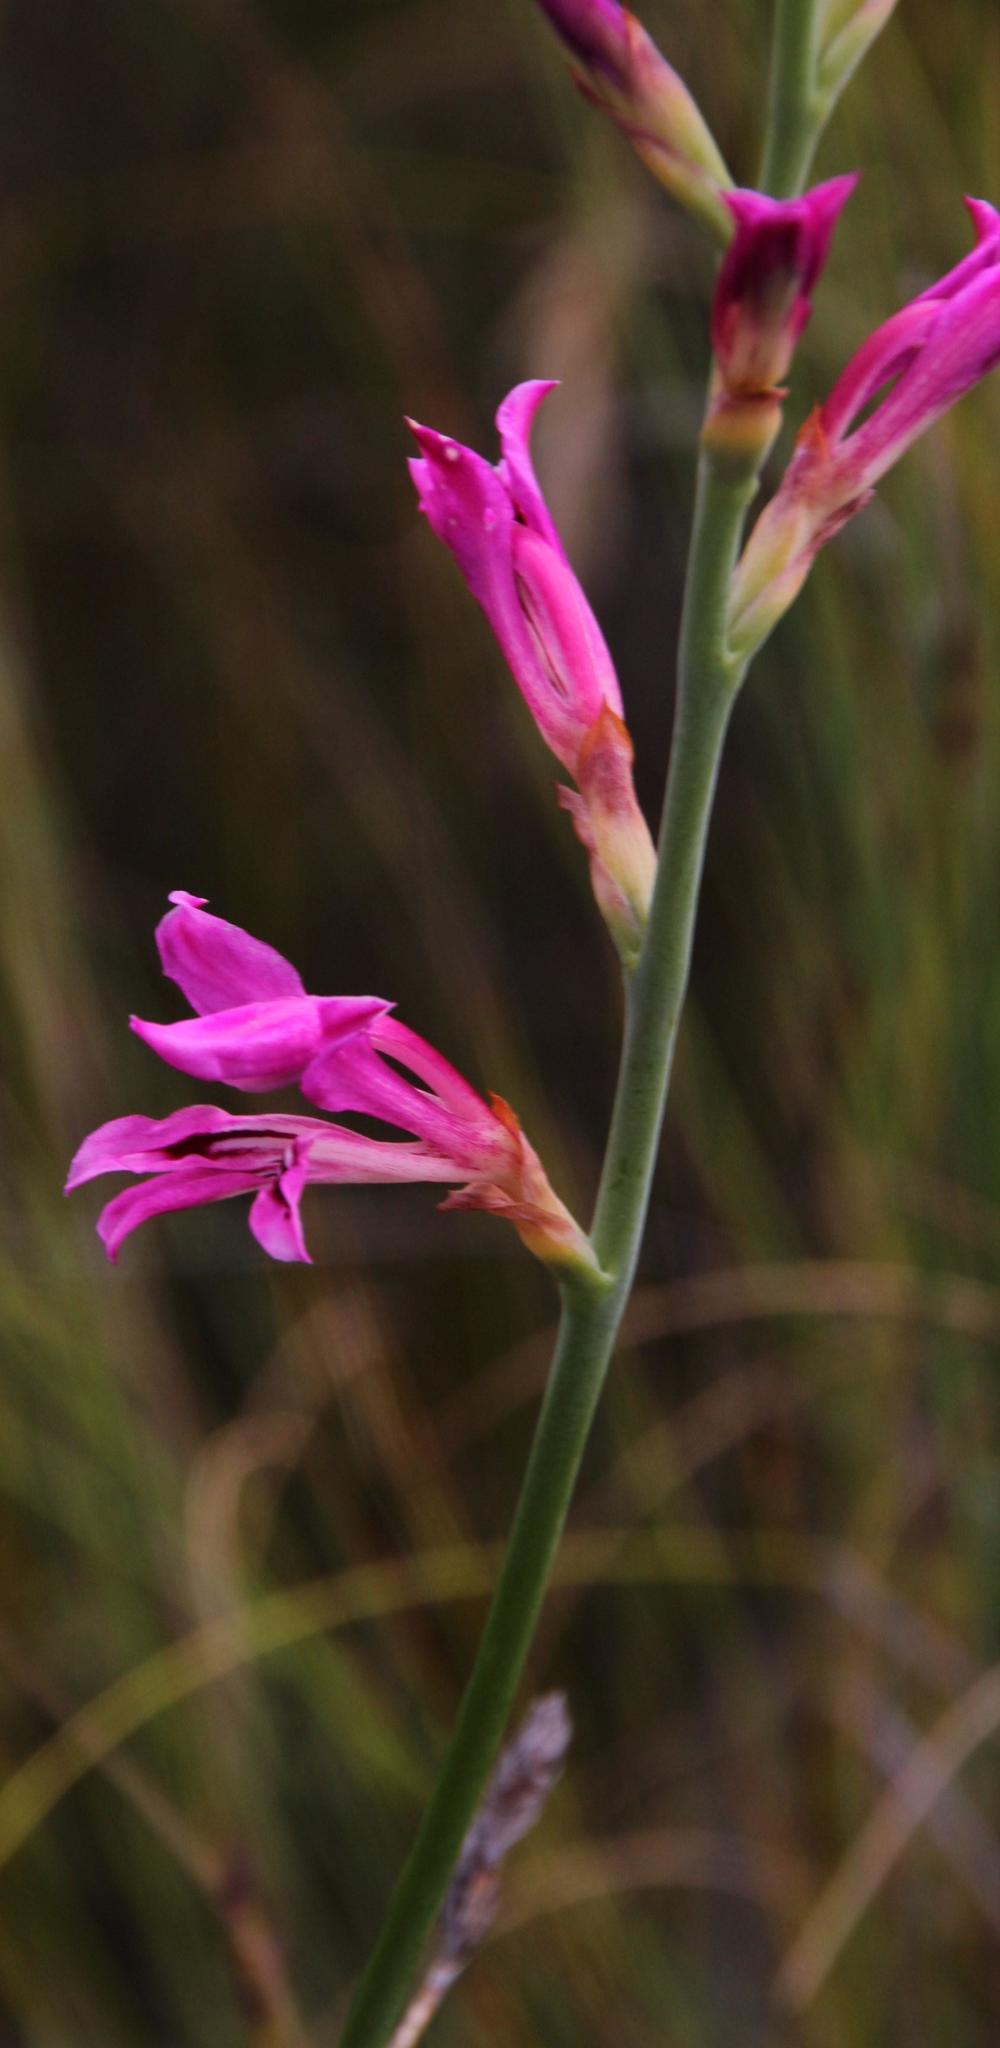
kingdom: Plantae
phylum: Tracheophyta
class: Liliopsida
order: Asparagales
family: Iridaceae
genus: Tritoniopsis
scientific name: Tritoniopsis lata
